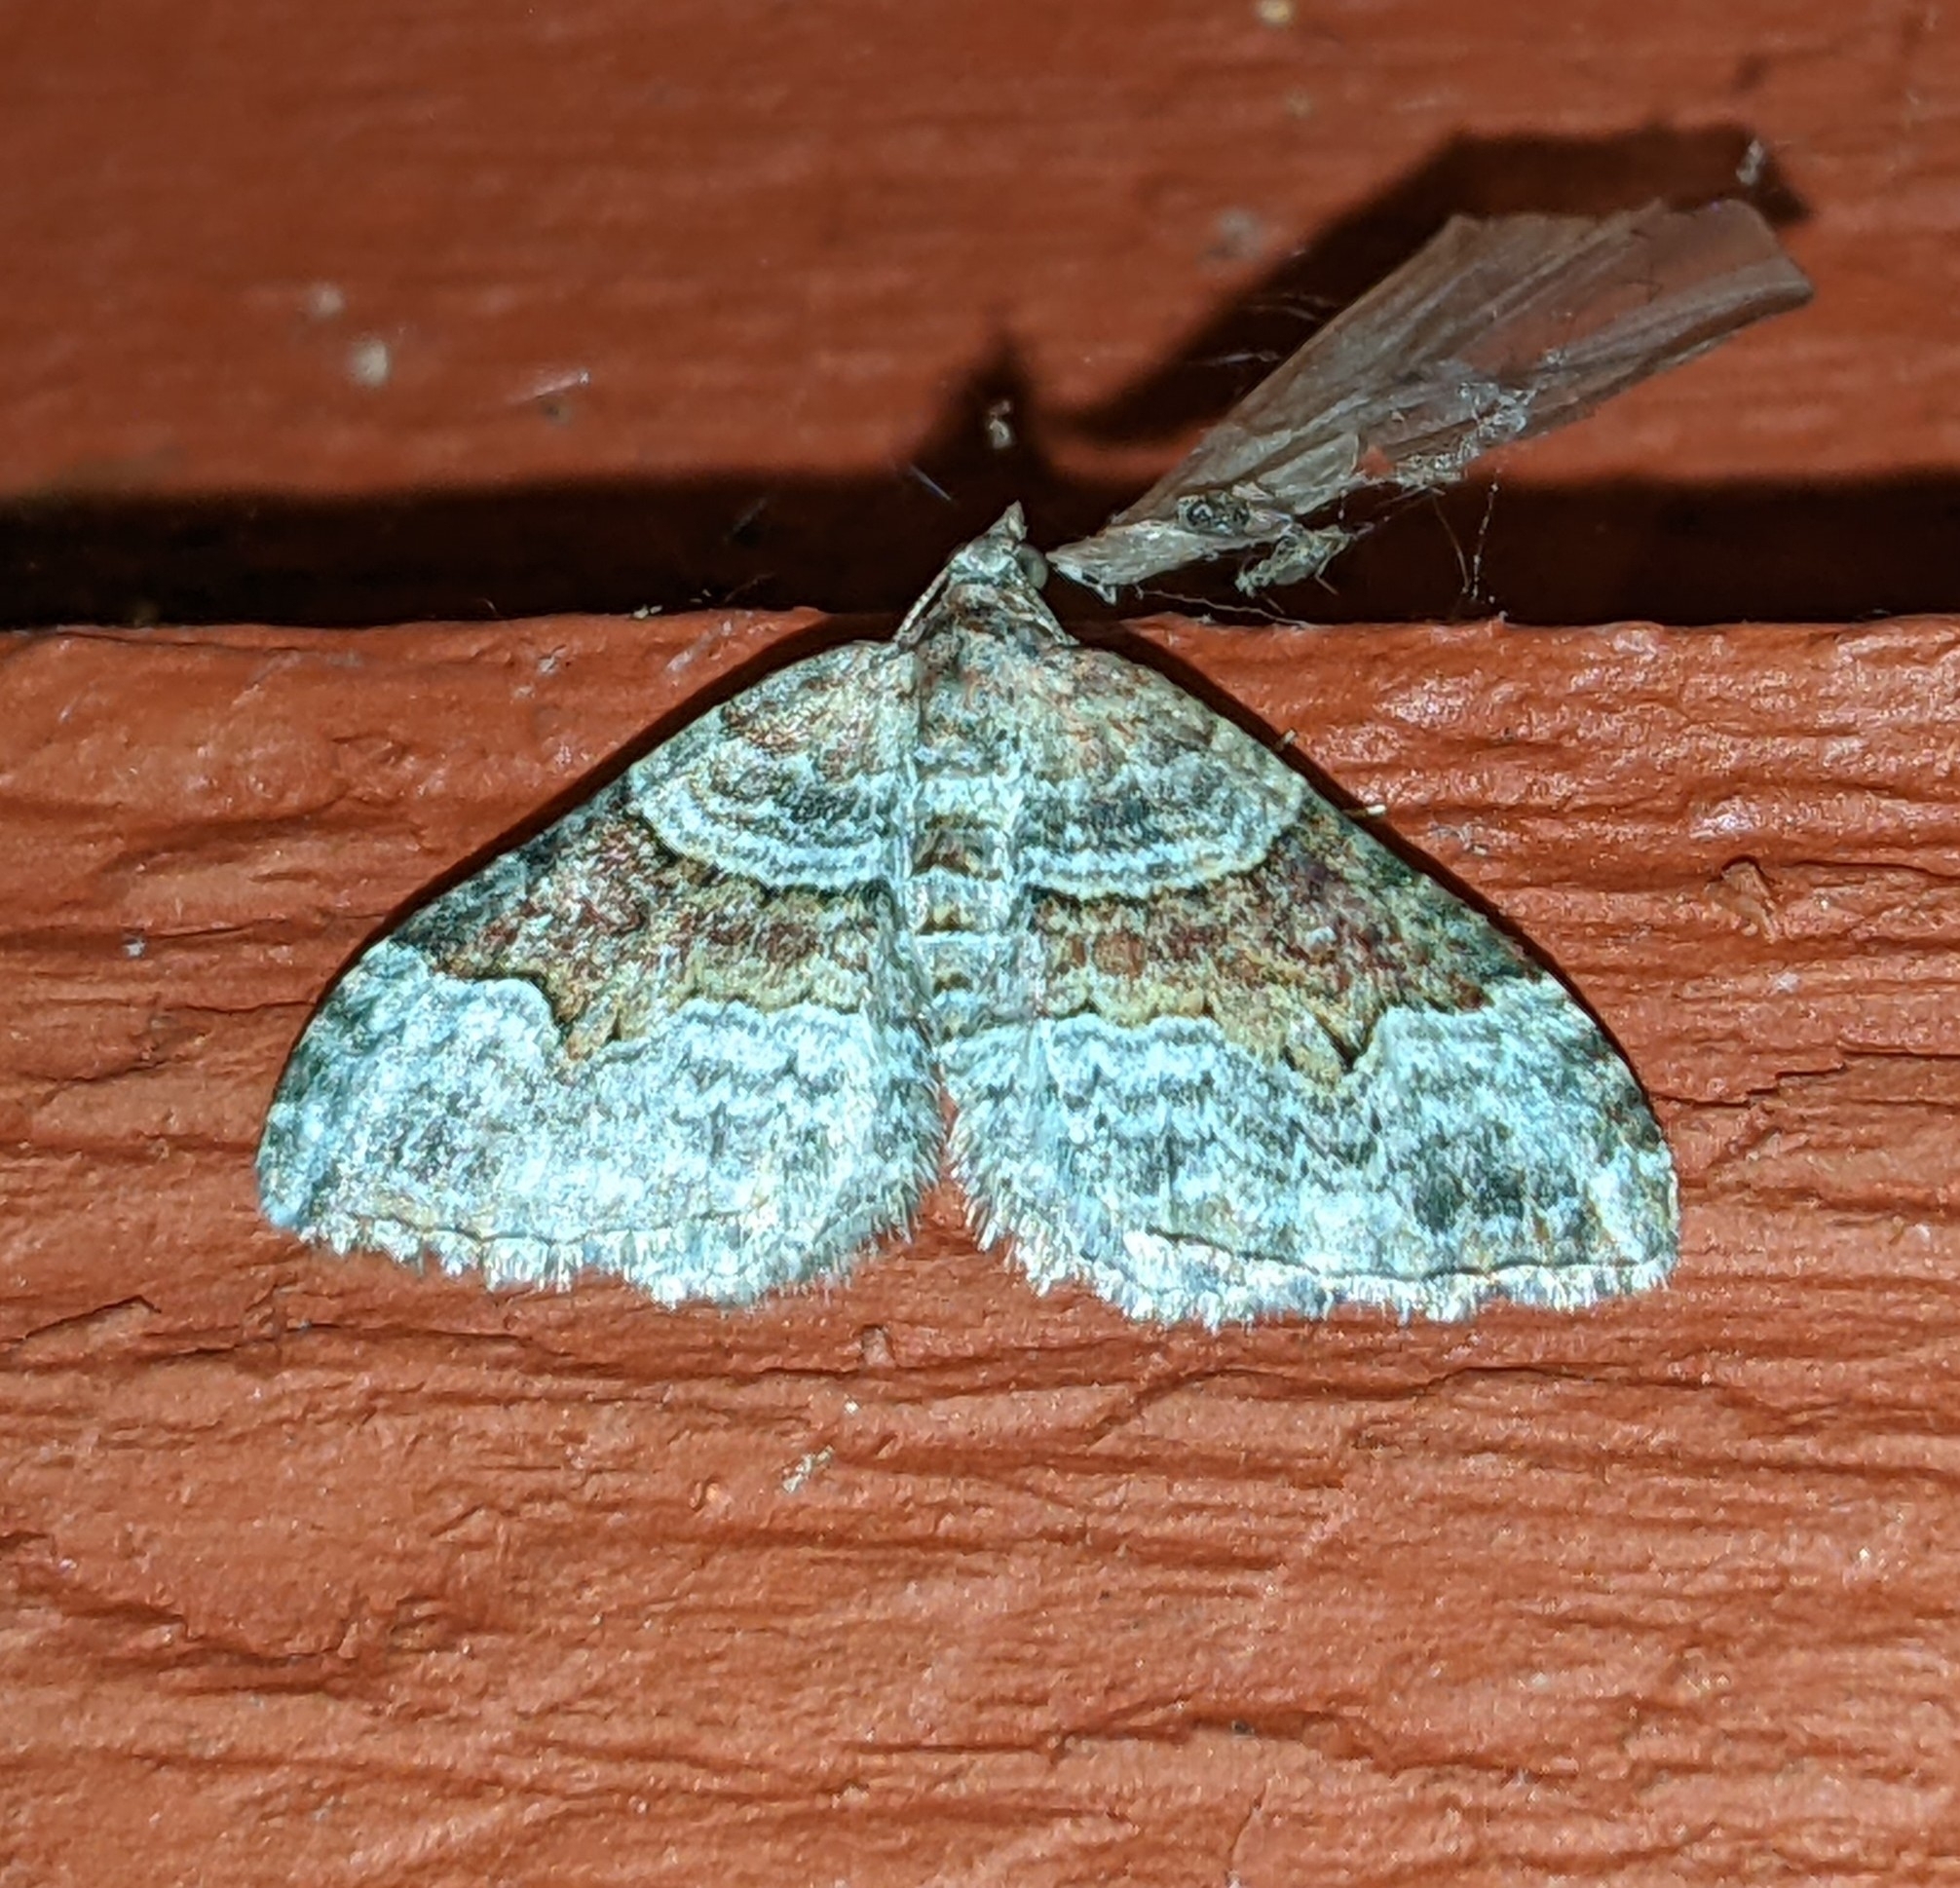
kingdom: Animalia
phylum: Arthropoda
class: Insecta
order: Lepidoptera
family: Geometridae
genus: Xanthorhoe
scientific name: Xanthorhoe defensaria
